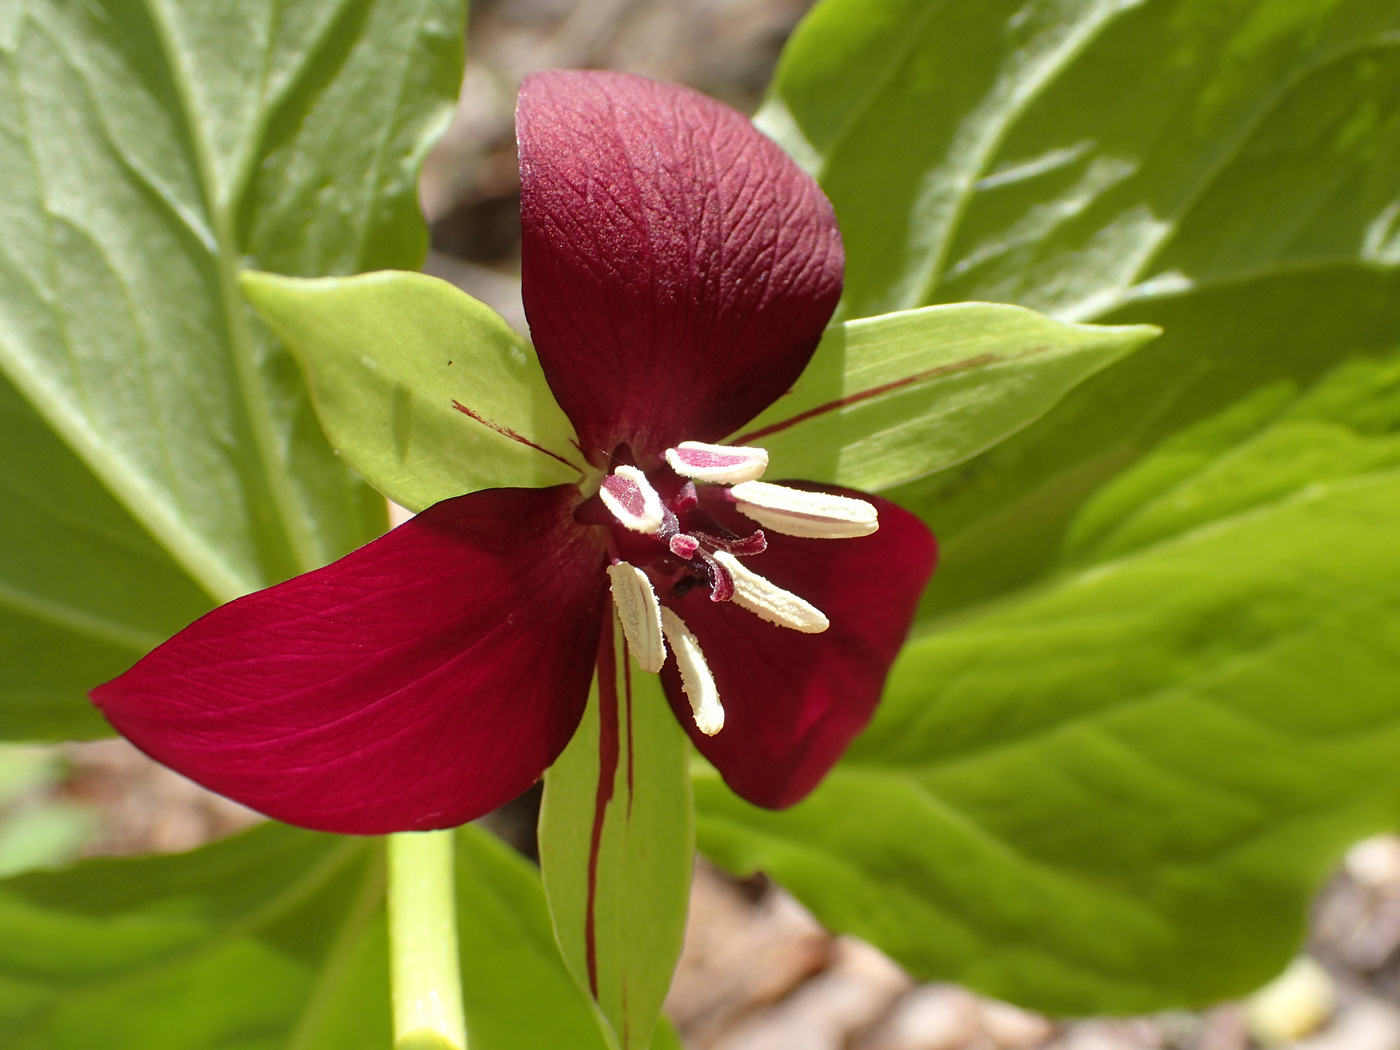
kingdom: Plantae
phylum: Tracheophyta
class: Liliopsida
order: Liliales
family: Melanthiaceae
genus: Trillium
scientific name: Trillium rugelii
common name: Ill-scented trillium
